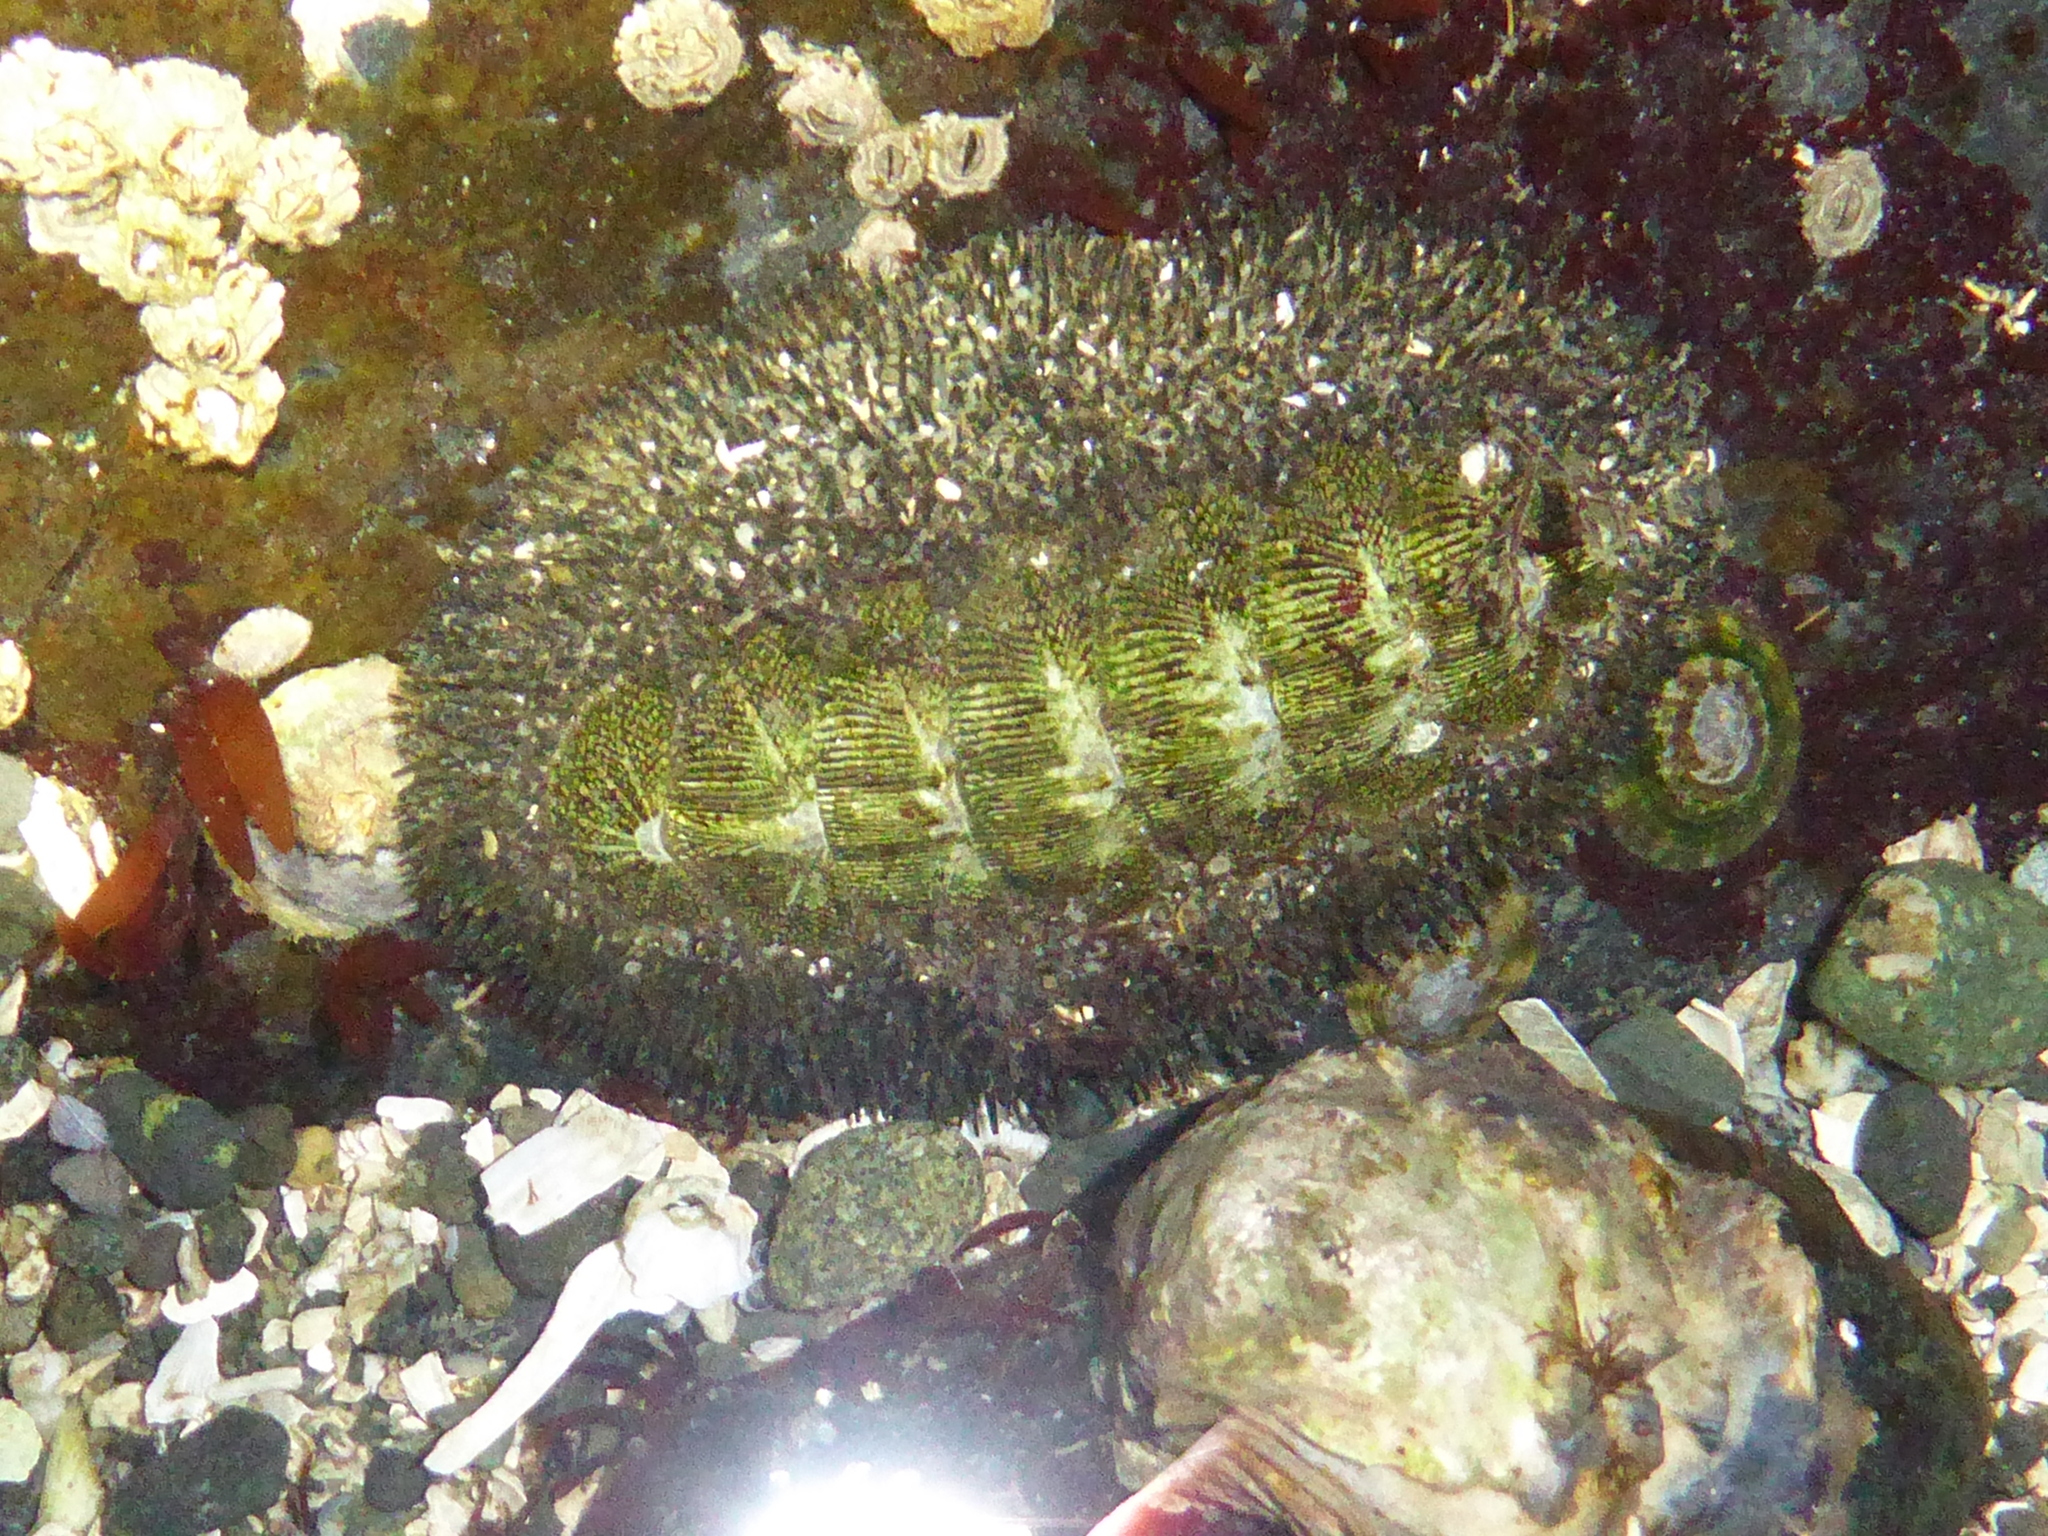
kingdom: Animalia
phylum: Mollusca
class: Polyplacophora
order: Chitonida
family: Mopaliidae
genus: Mopalia
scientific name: Mopalia muscosa
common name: Mossy chiton
